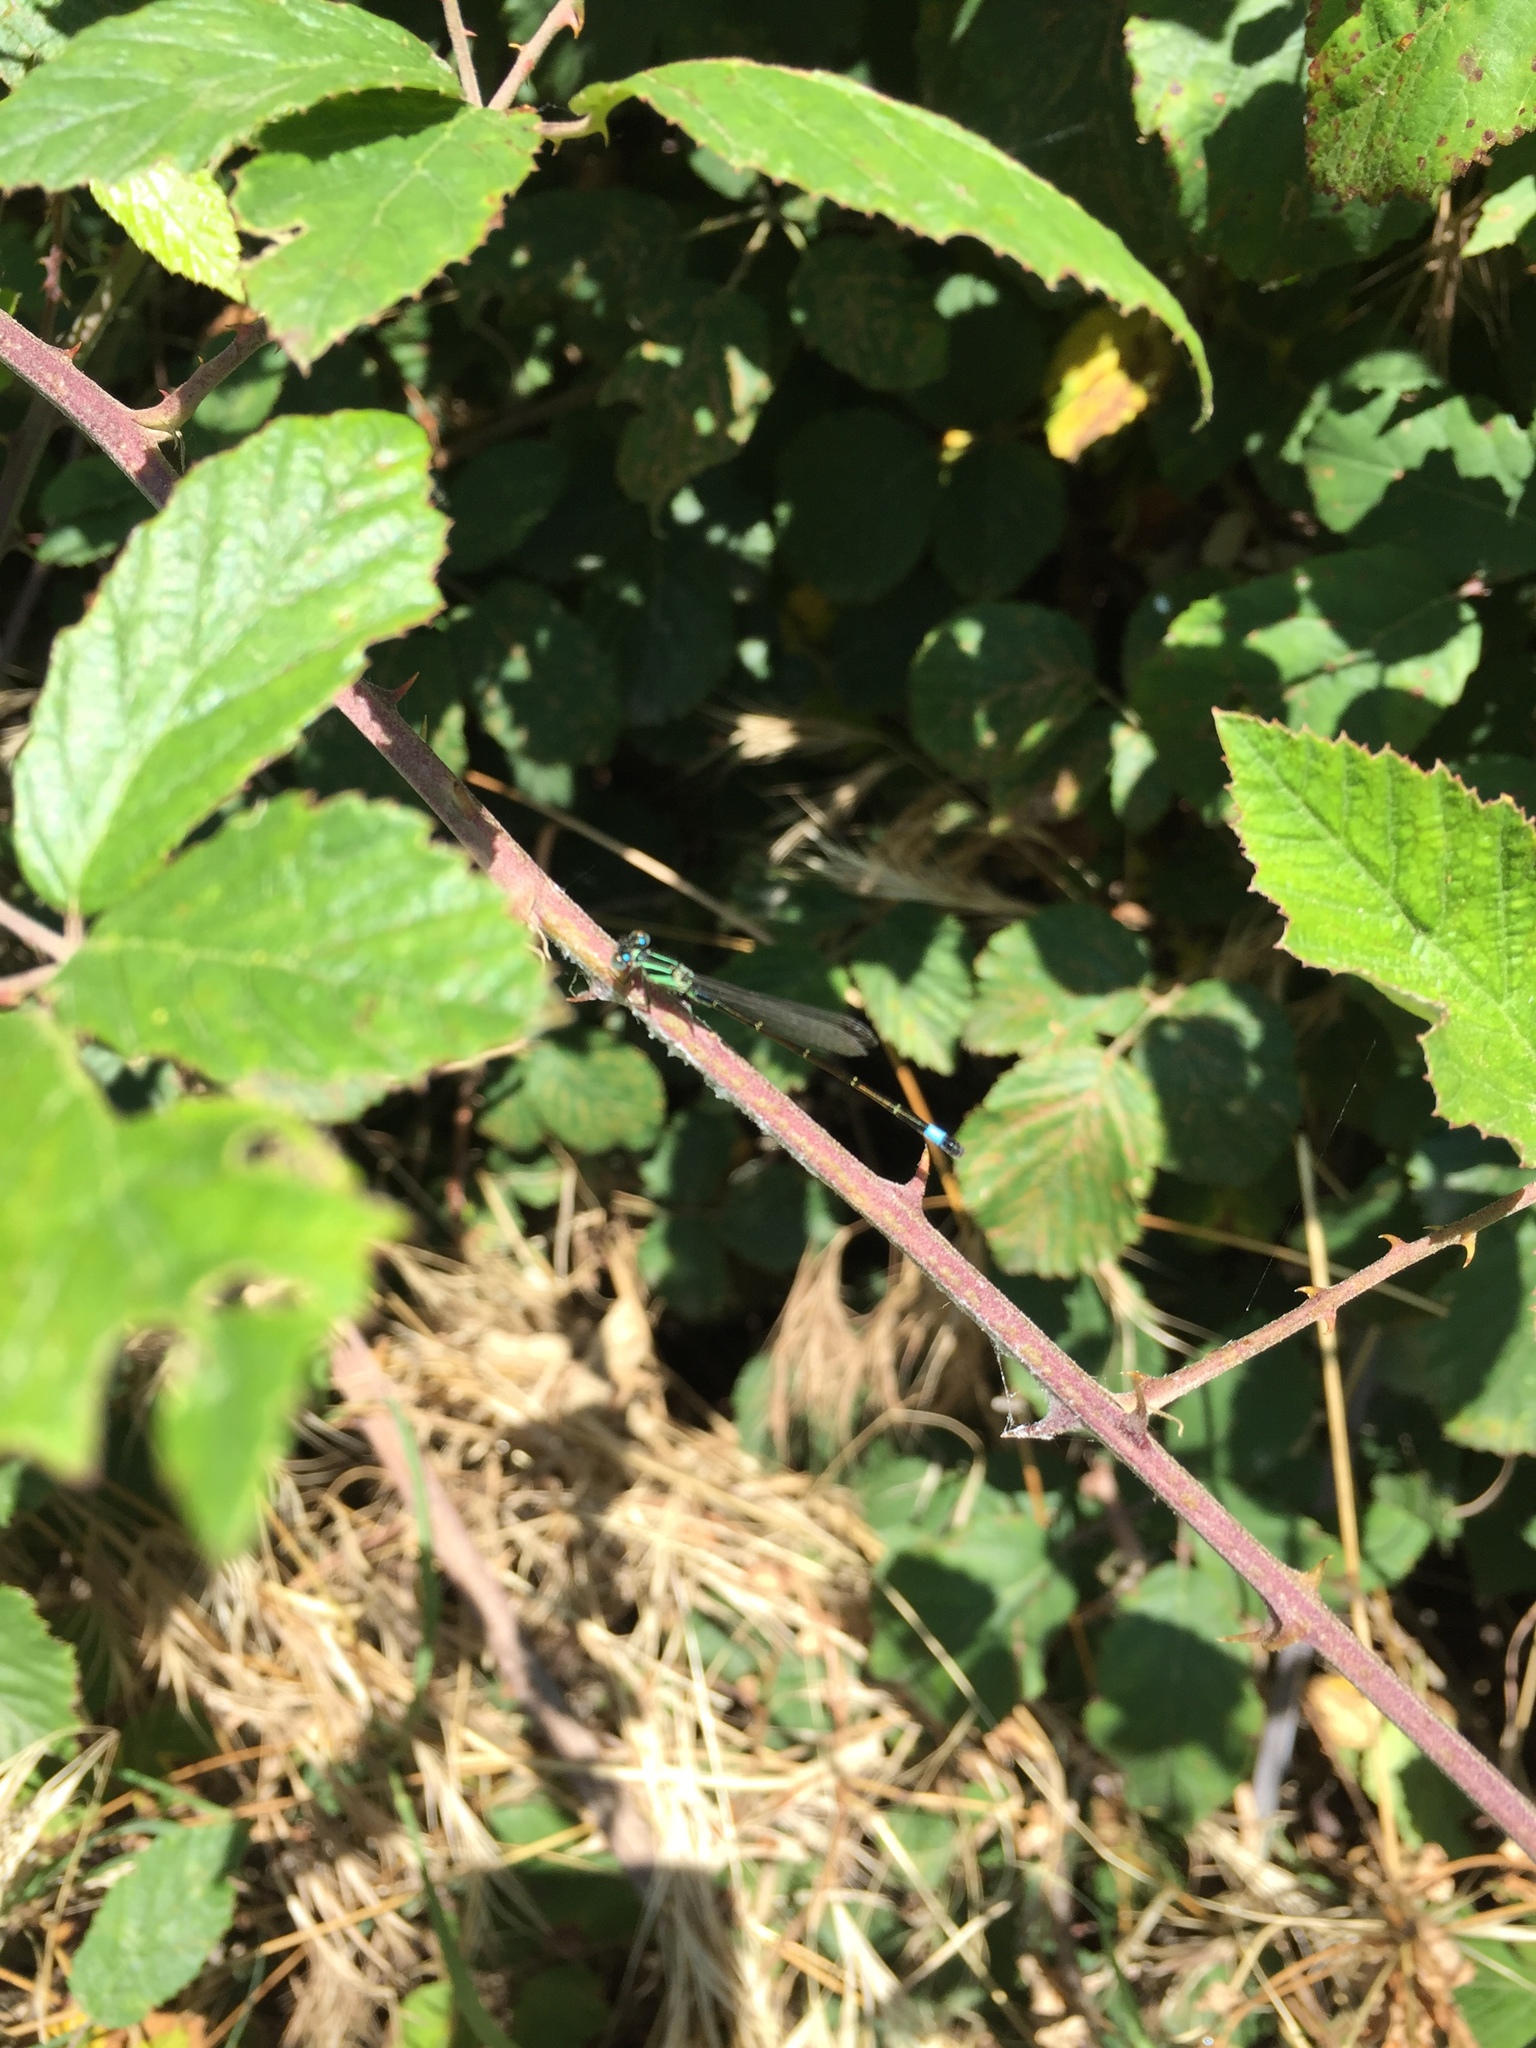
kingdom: Animalia
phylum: Arthropoda
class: Insecta
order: Odonata
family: Coenagrionidae
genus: Ischnura
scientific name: Ischnura elegans
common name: Blue-tailed damselfly
